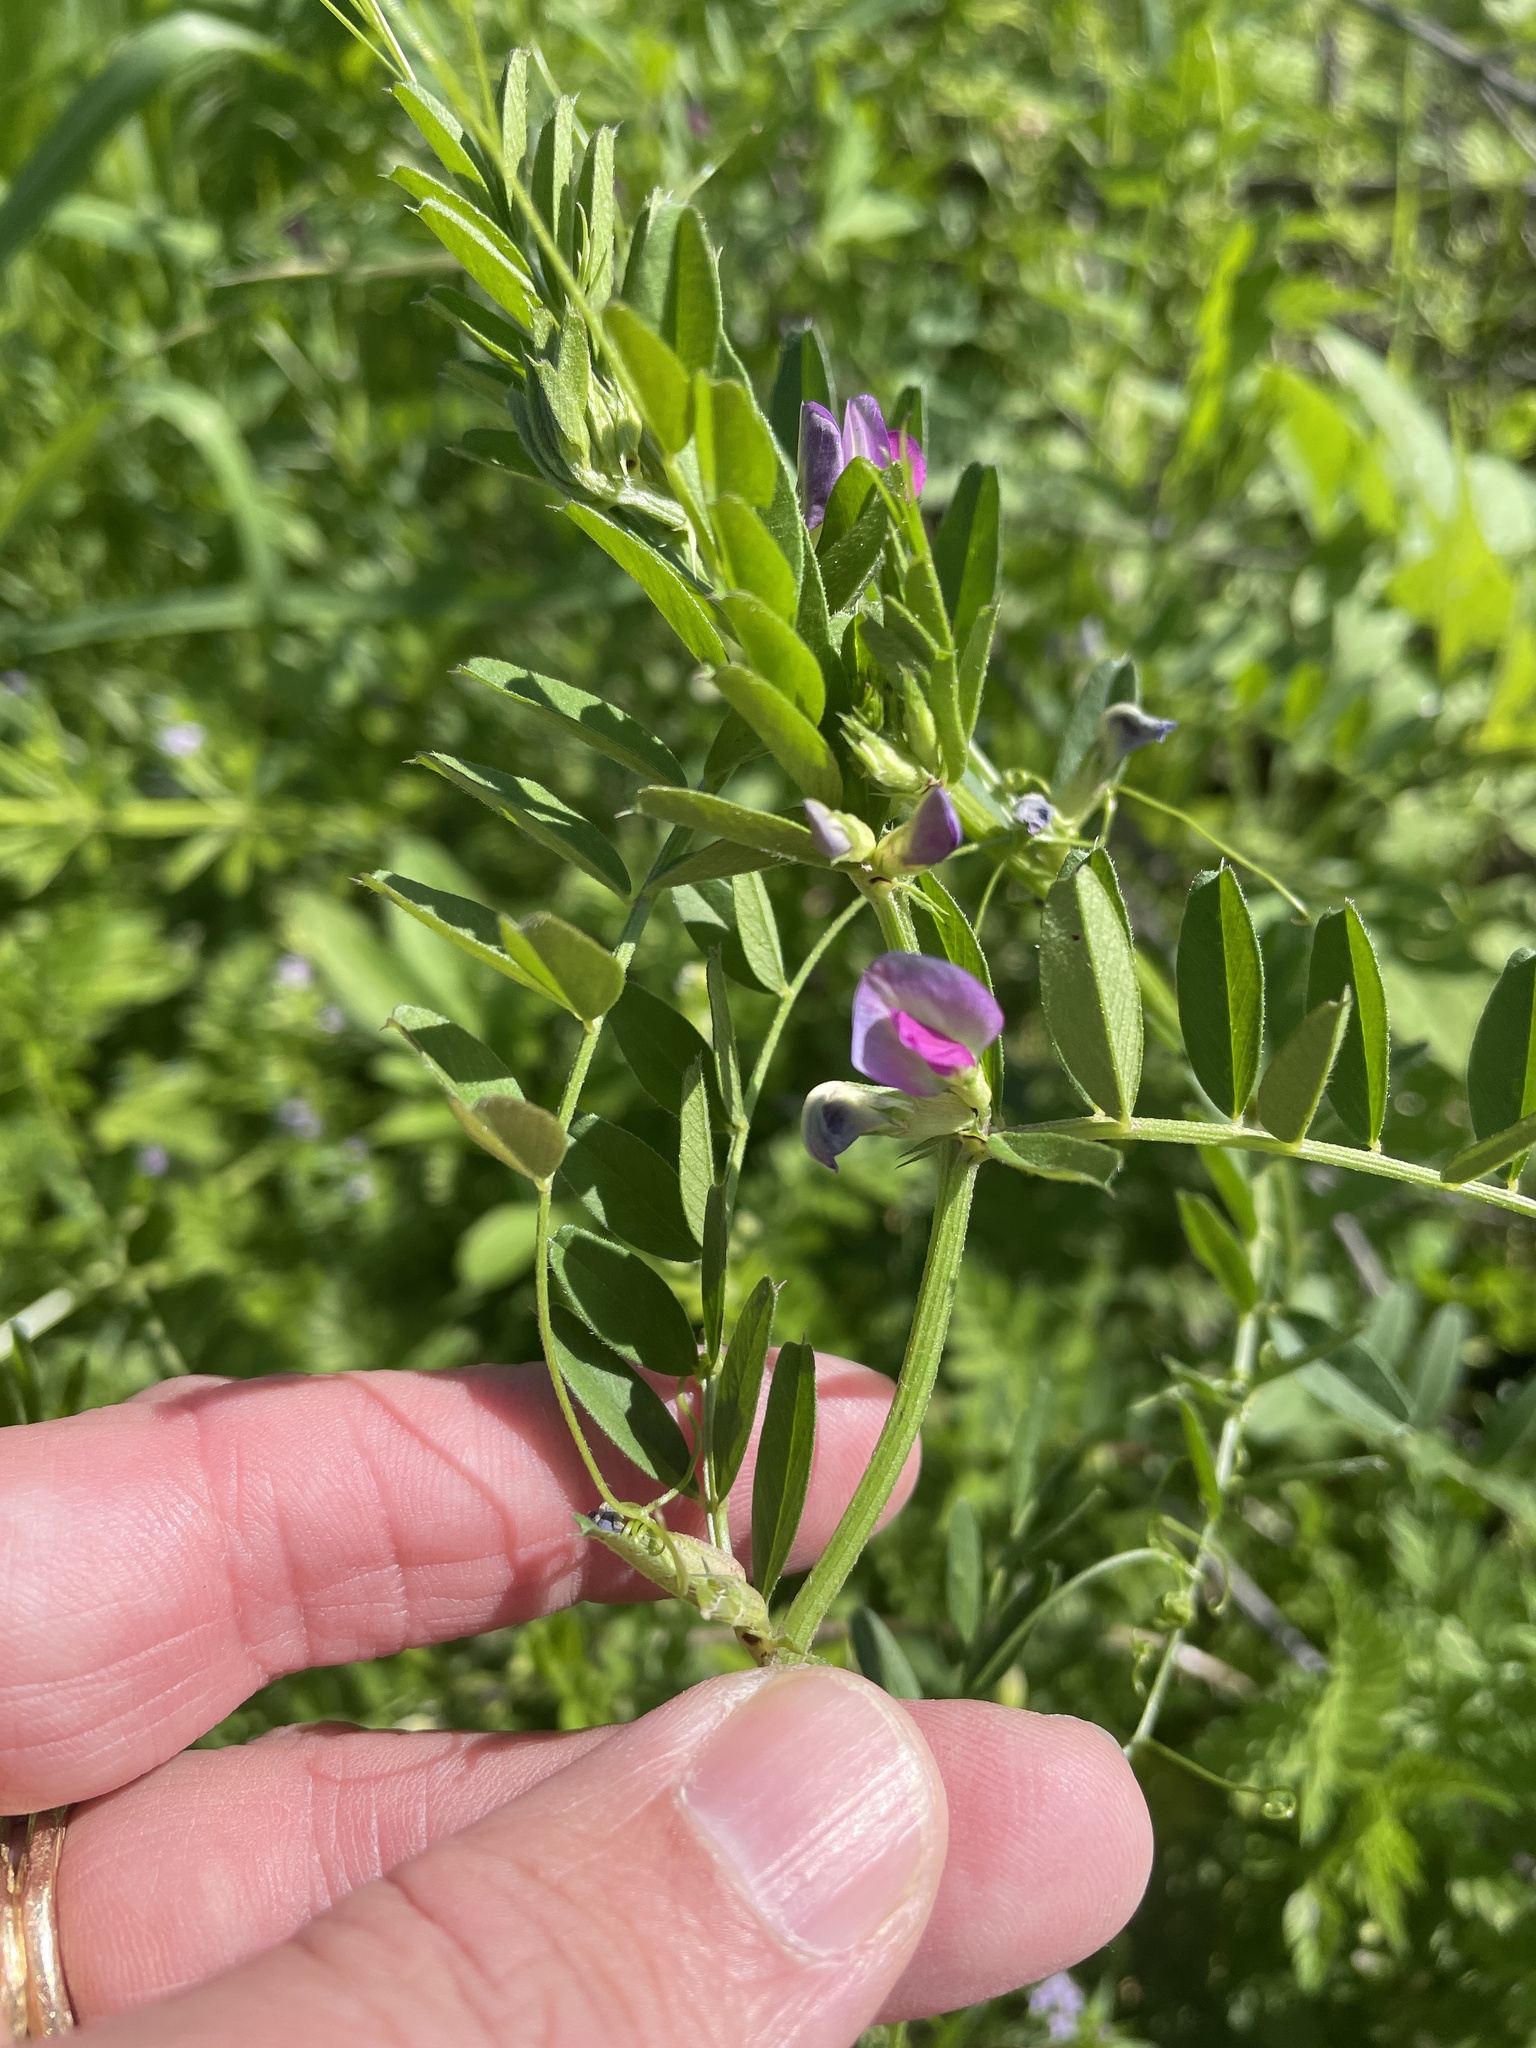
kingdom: Plantae
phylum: Tracheophyta
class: Magnoliopsida
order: Fabales
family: Fabaceae
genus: Vicia
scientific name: Vicia sativa
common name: Garden vetch
